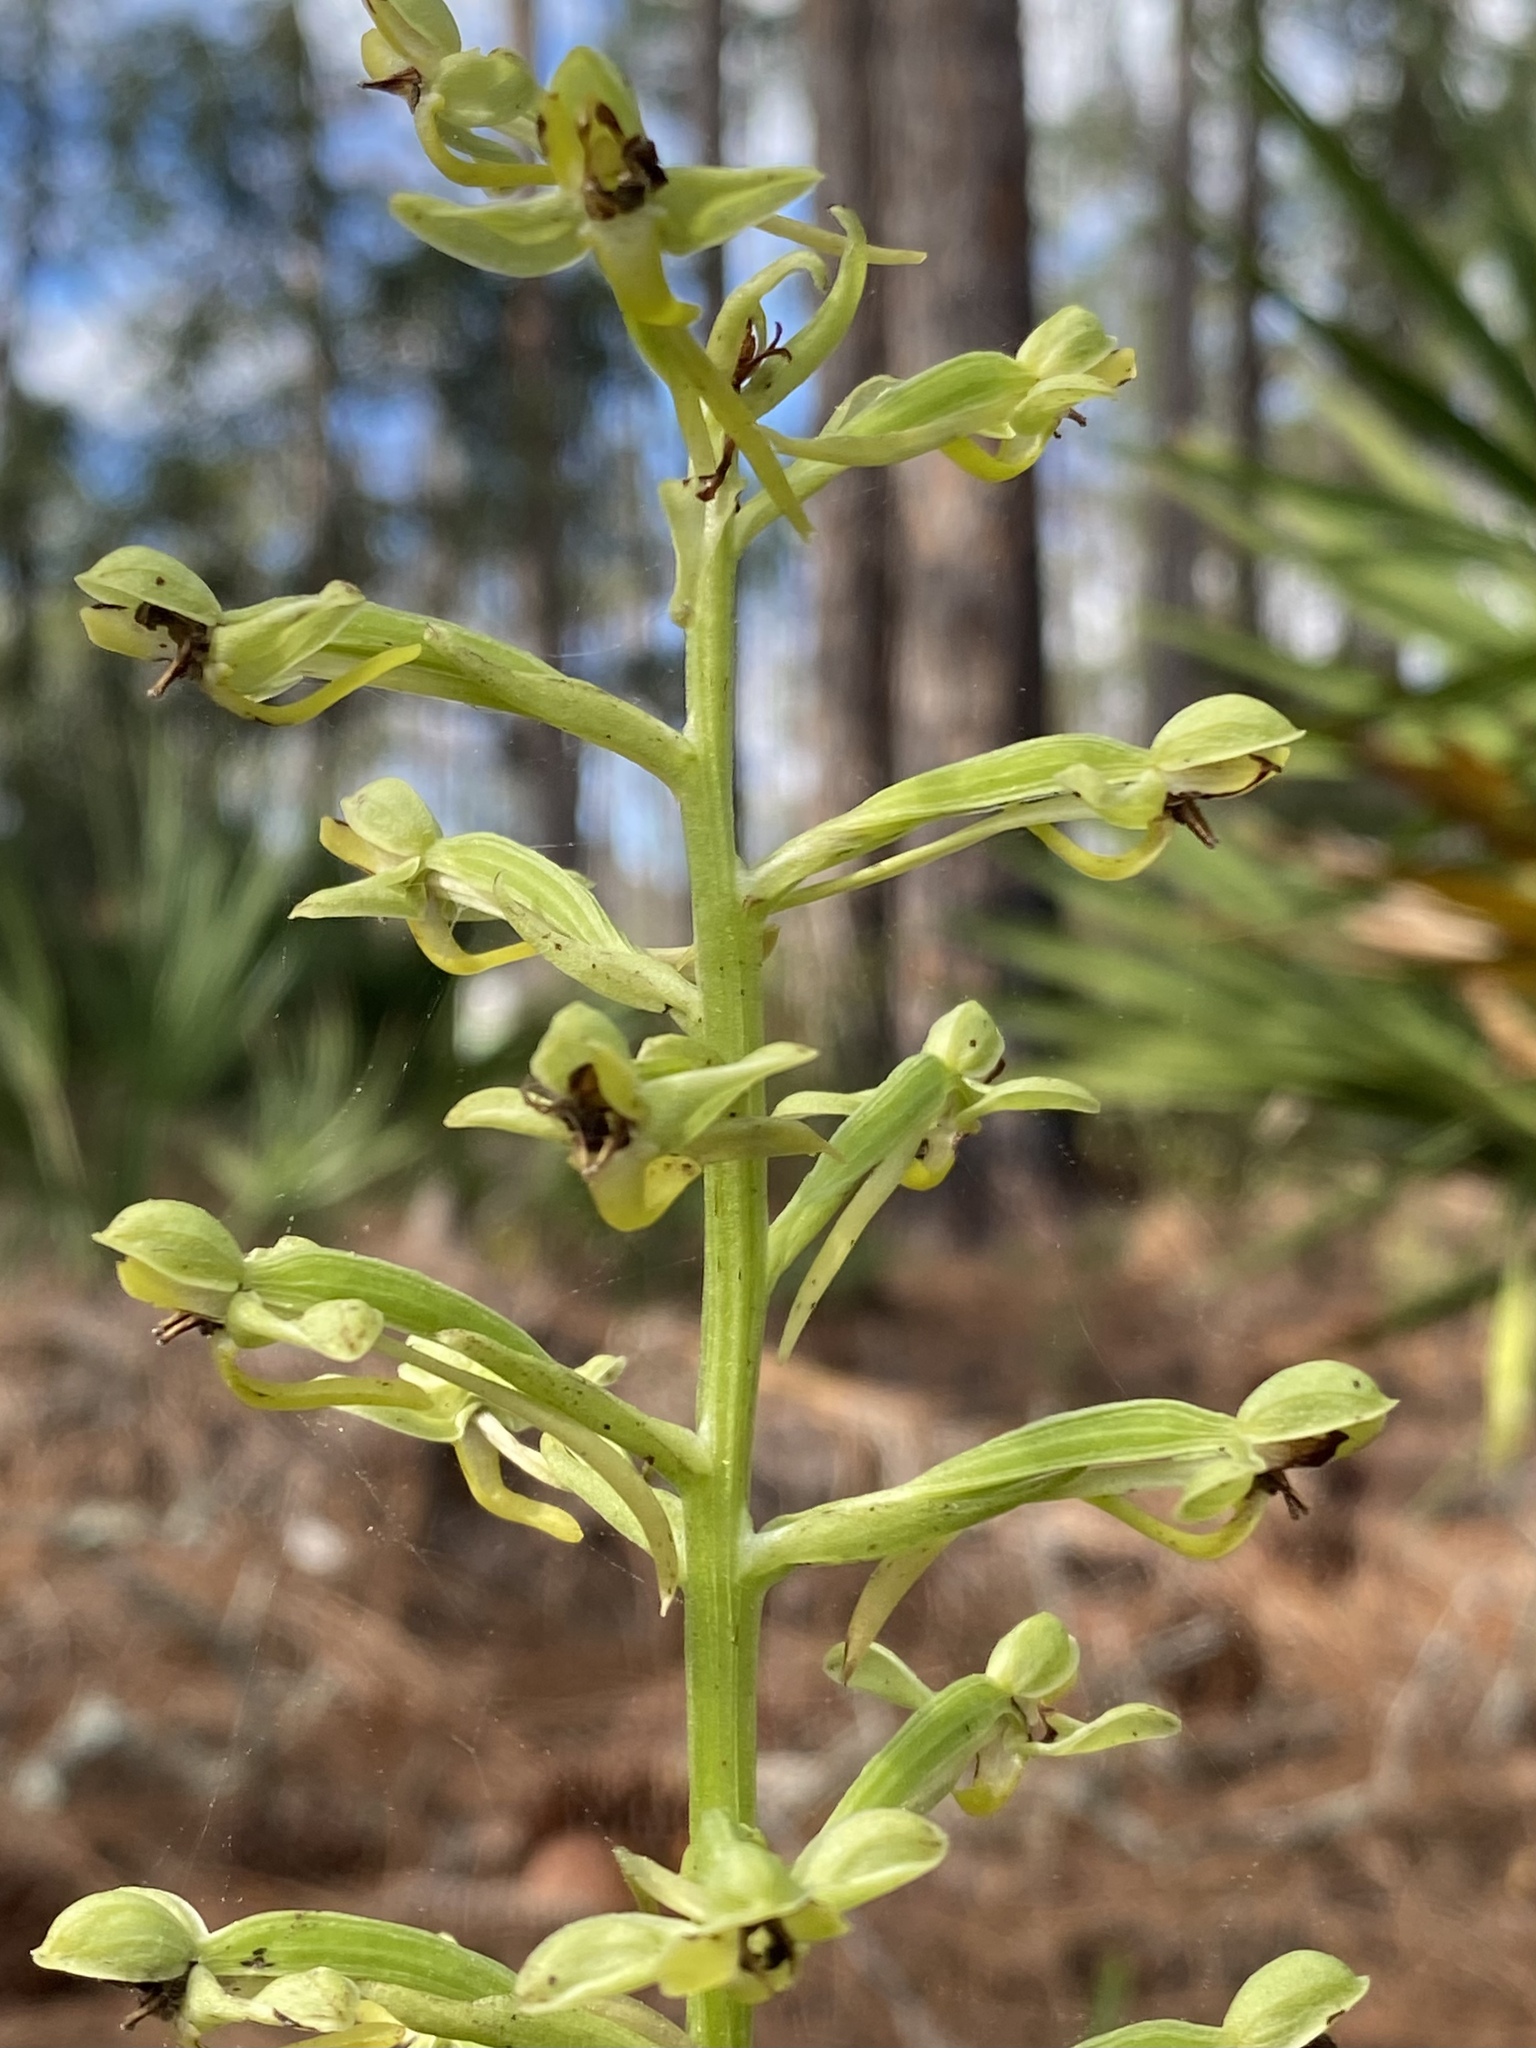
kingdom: Plantae
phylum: Tracheophyta
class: Liliopsida
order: Asparagales
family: Orchidaceae
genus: Habenaria
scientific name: Habenaria floribunda
